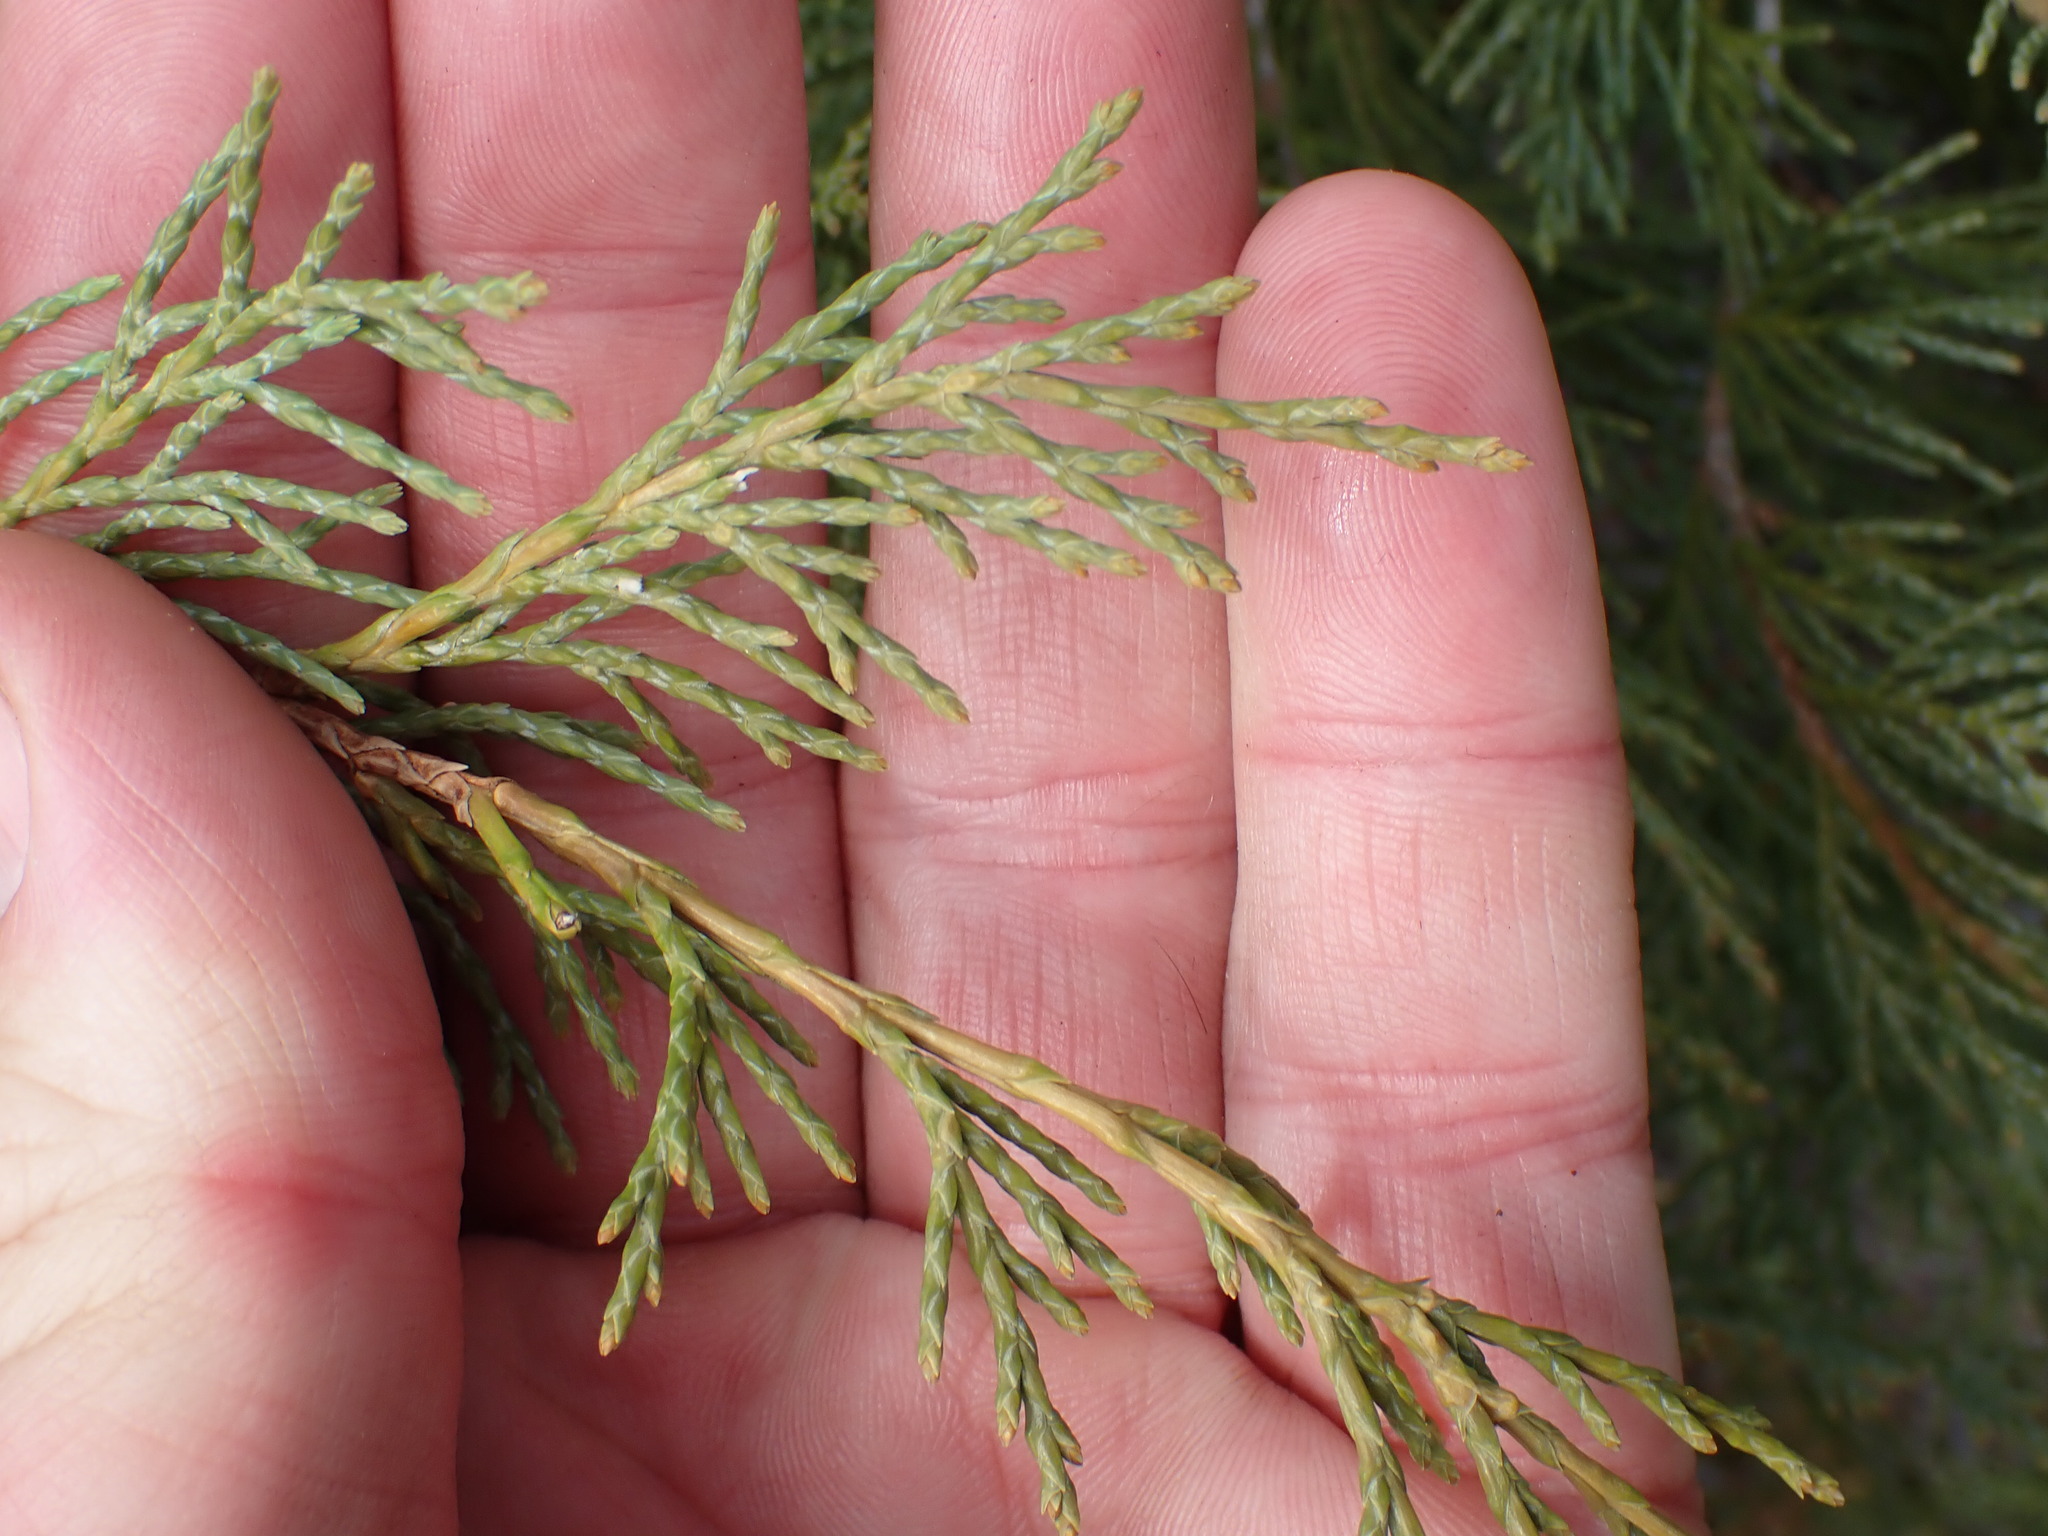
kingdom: Plantae
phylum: Tracheophyta
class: Pinopsida
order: Pinales
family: Cupressaceae
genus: Juniperus
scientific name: Juniperus scopulorum
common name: Rocky mountain juniper
